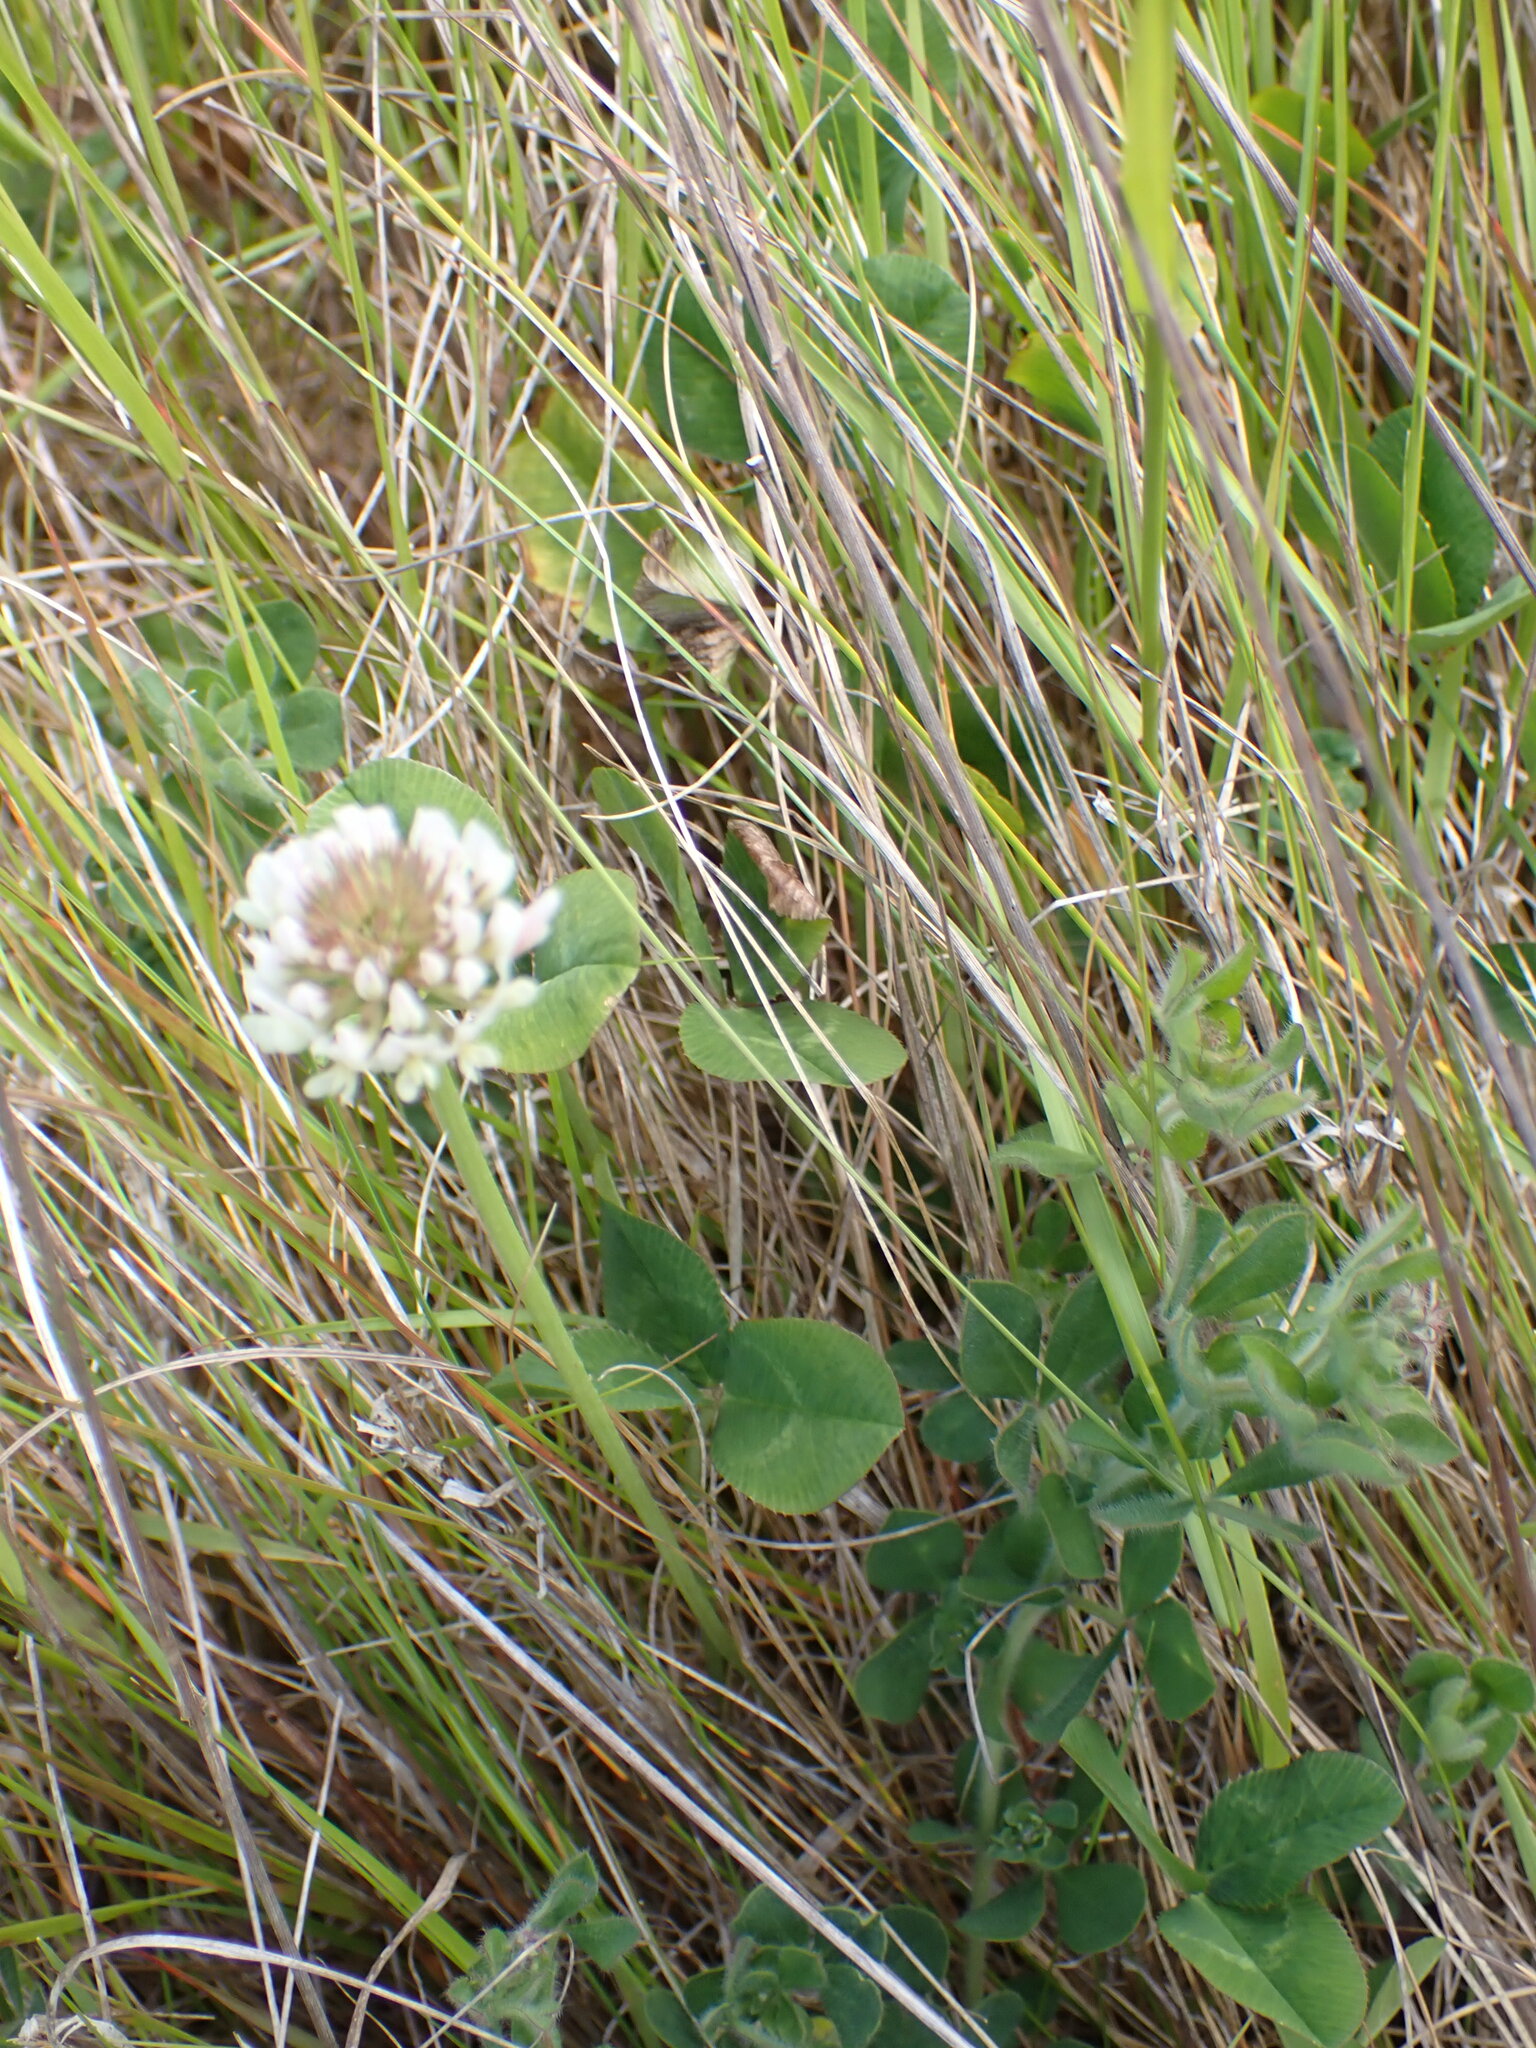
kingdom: Plantae
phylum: Tracheophyta
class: Magnoliopsida
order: Fabales
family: Fabaceae
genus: Trifolium
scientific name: Trifolium repens
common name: White clover
